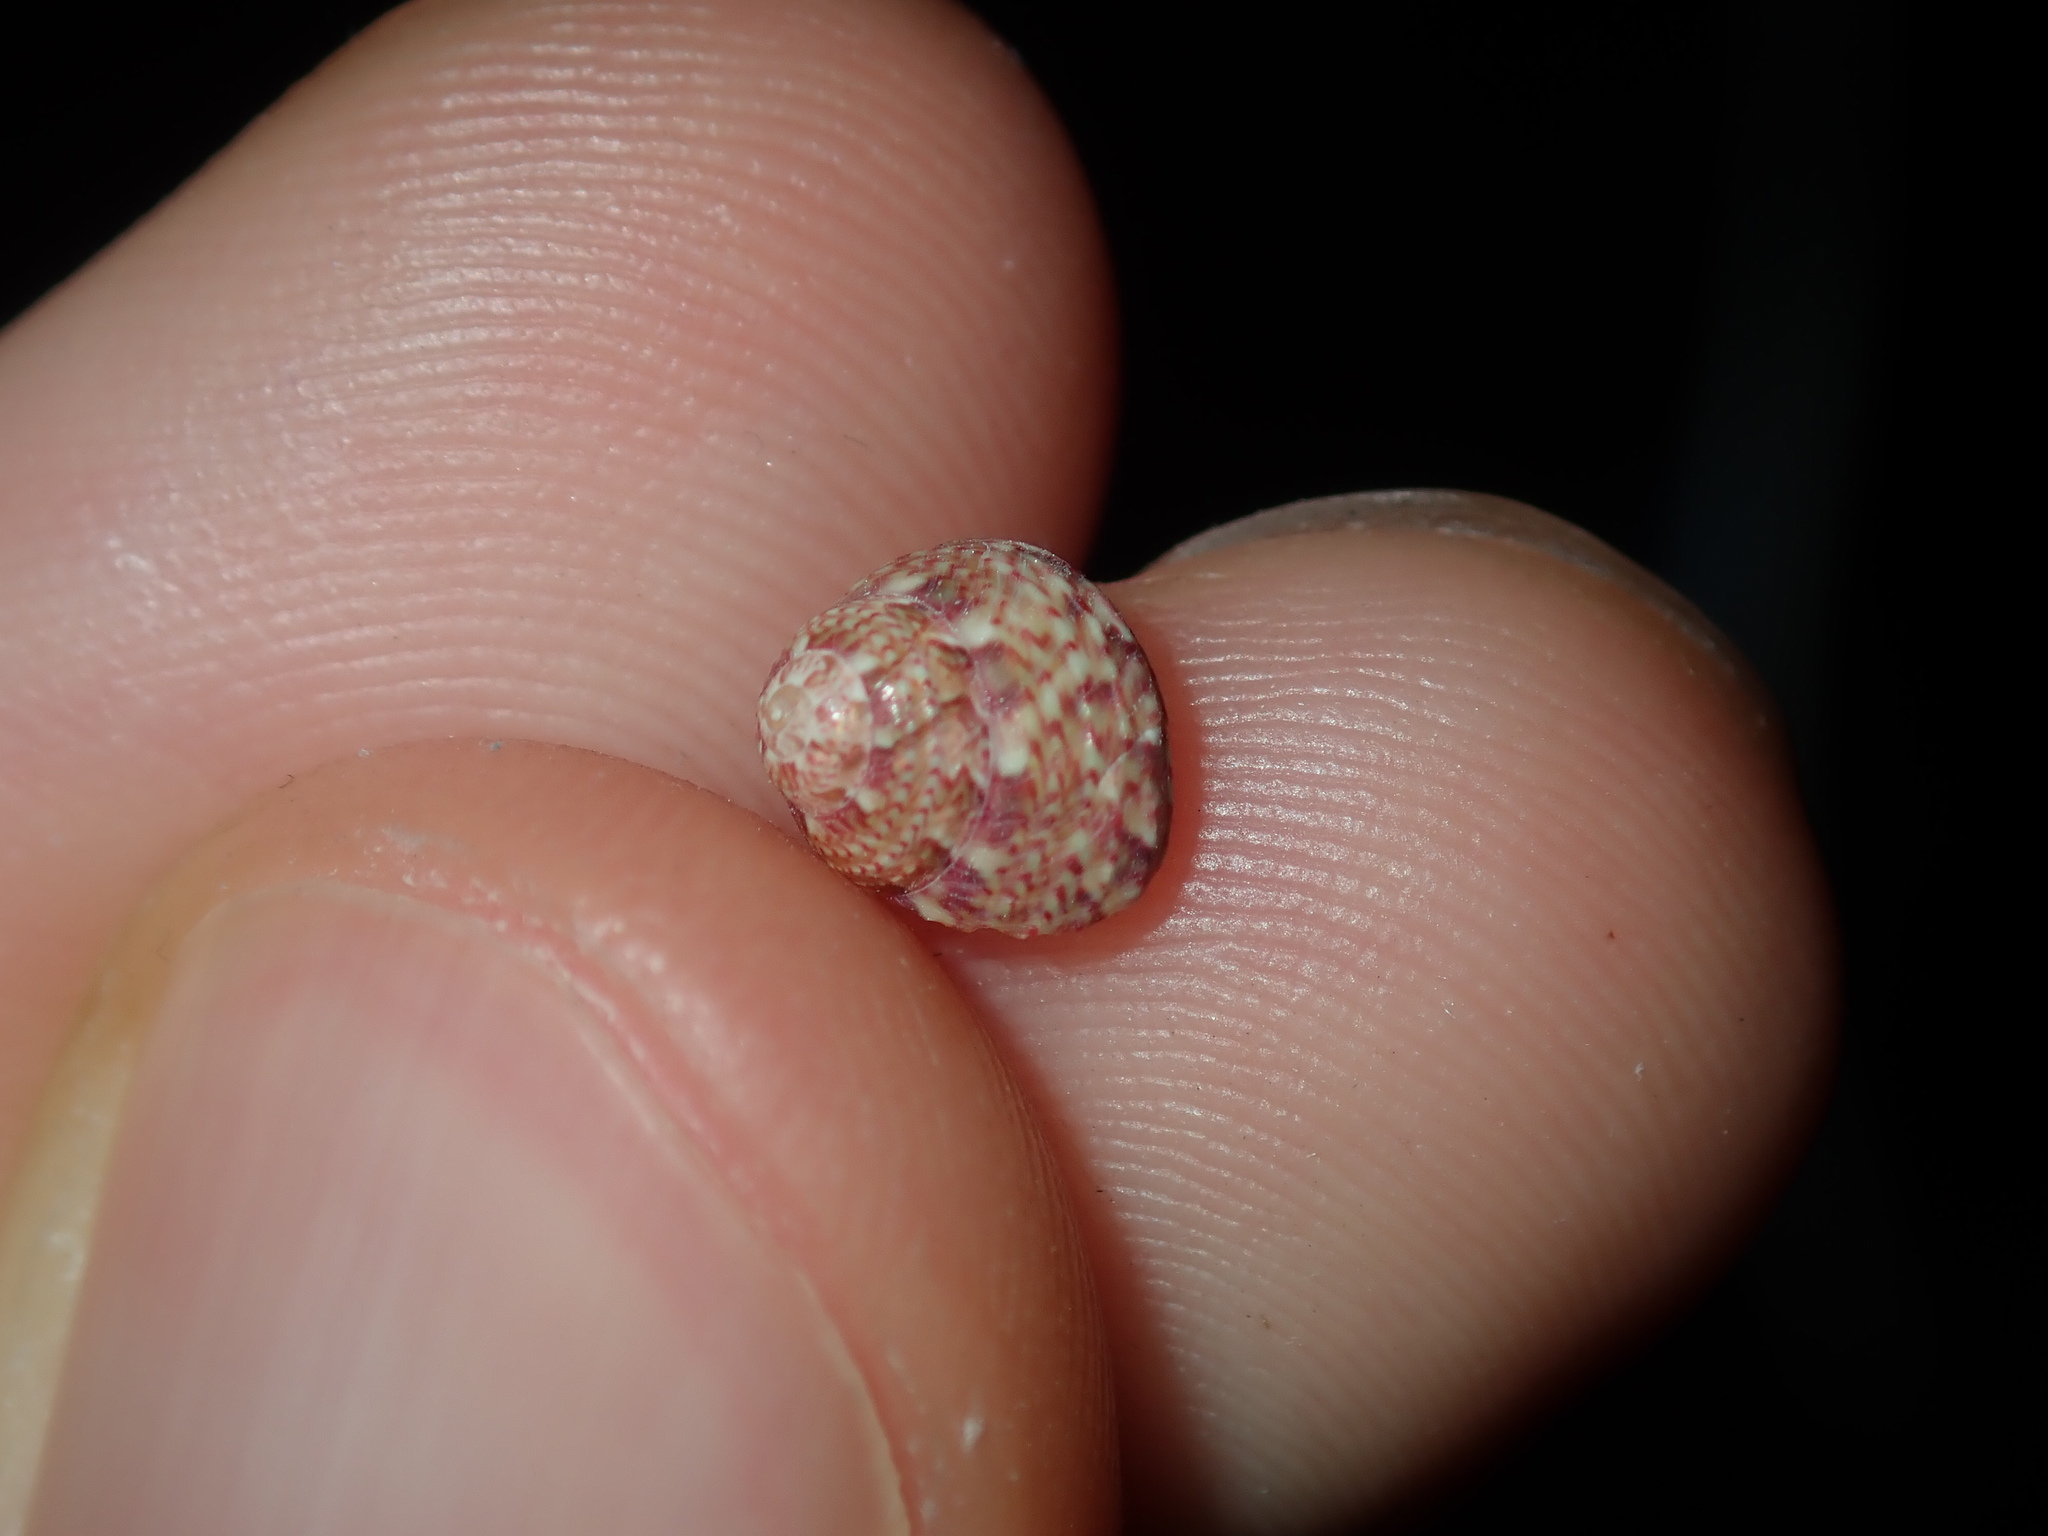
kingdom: Animalia
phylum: Mollusca
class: Gastropoda
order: Trochida
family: Trochidae
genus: Cantharidella
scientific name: Cantharidella picturata
